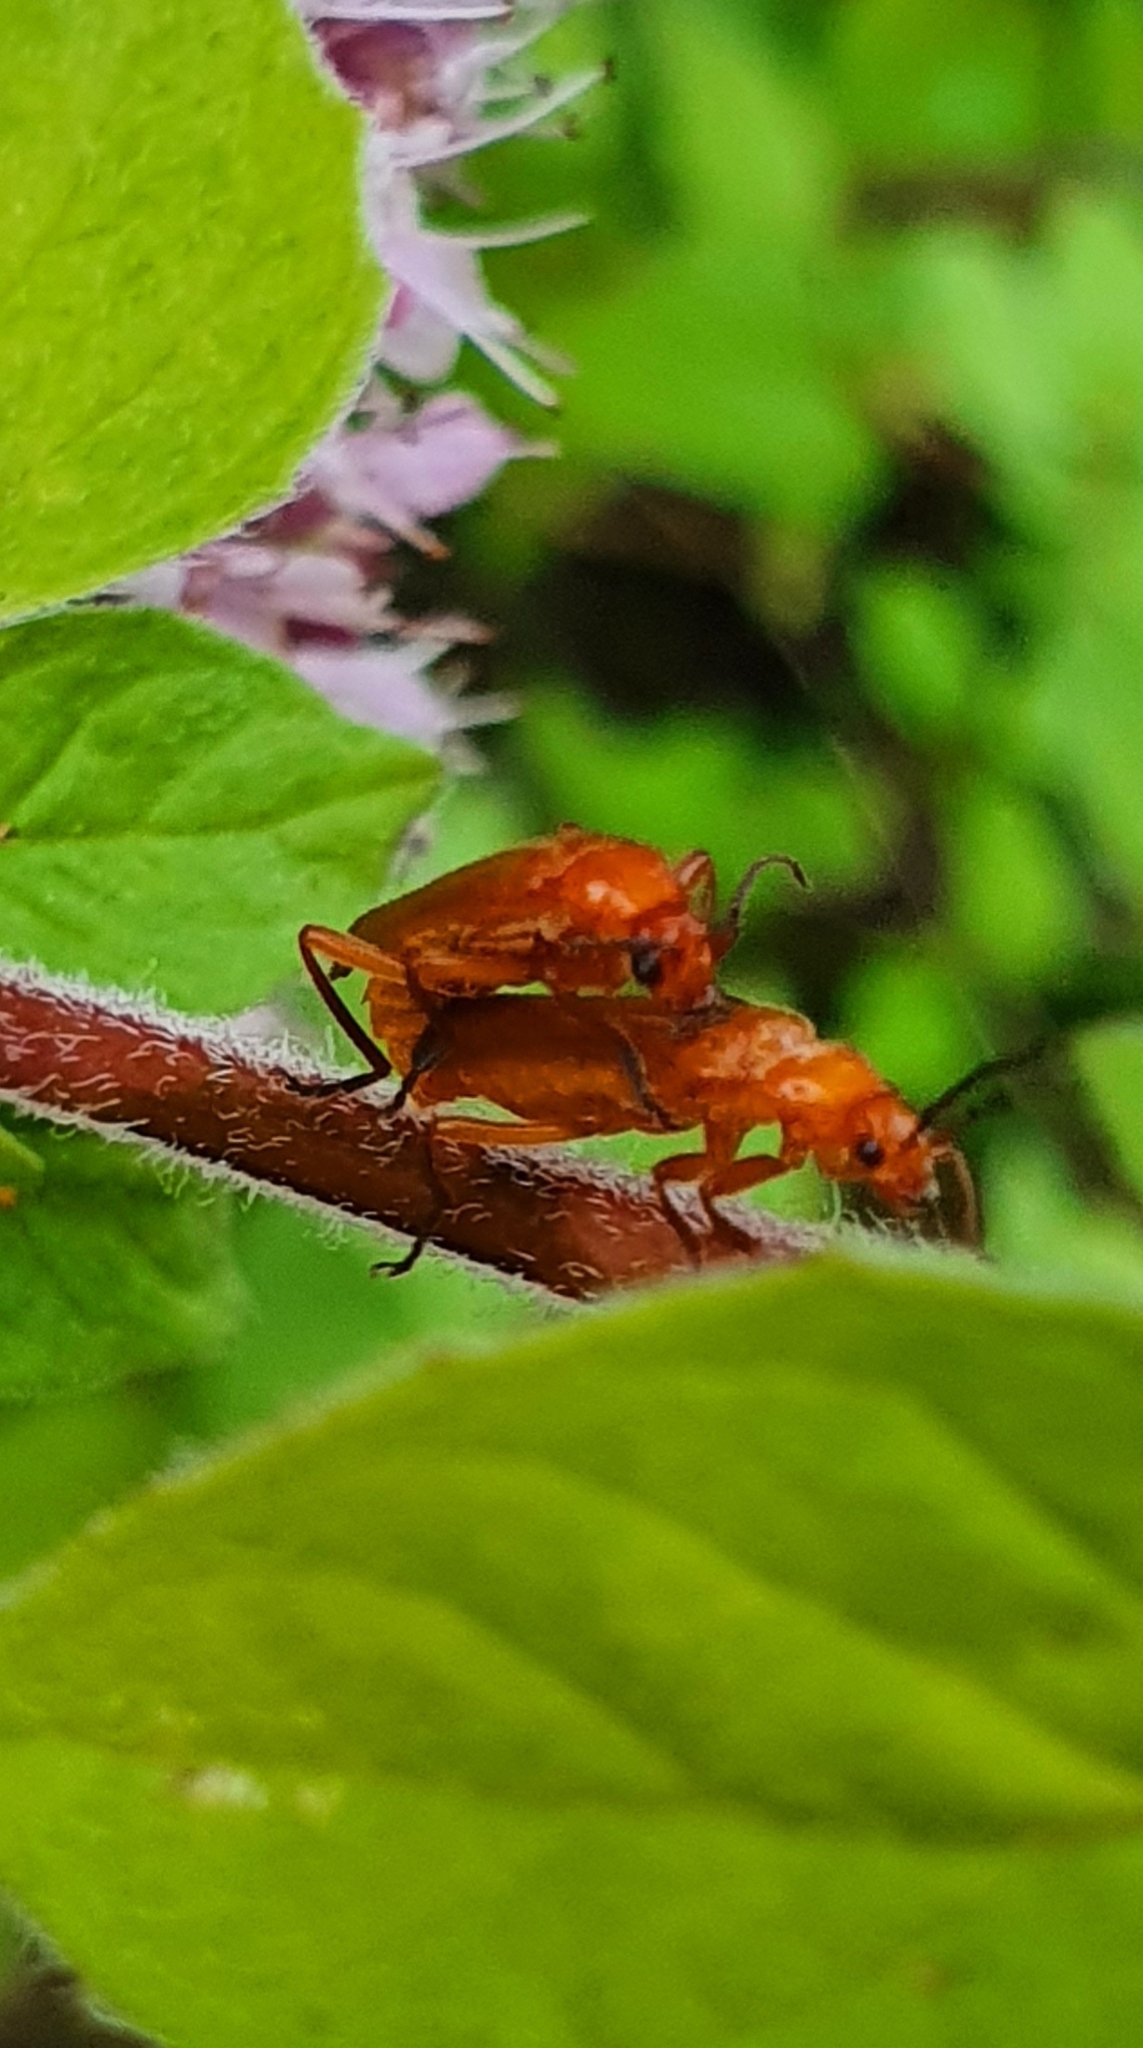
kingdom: Animalia
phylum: Arthropoda
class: Insecta
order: Coleoptera
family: Cantharidae
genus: Rhagonycha
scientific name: Rhagonycha fulva
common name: Common red soldier beetle
